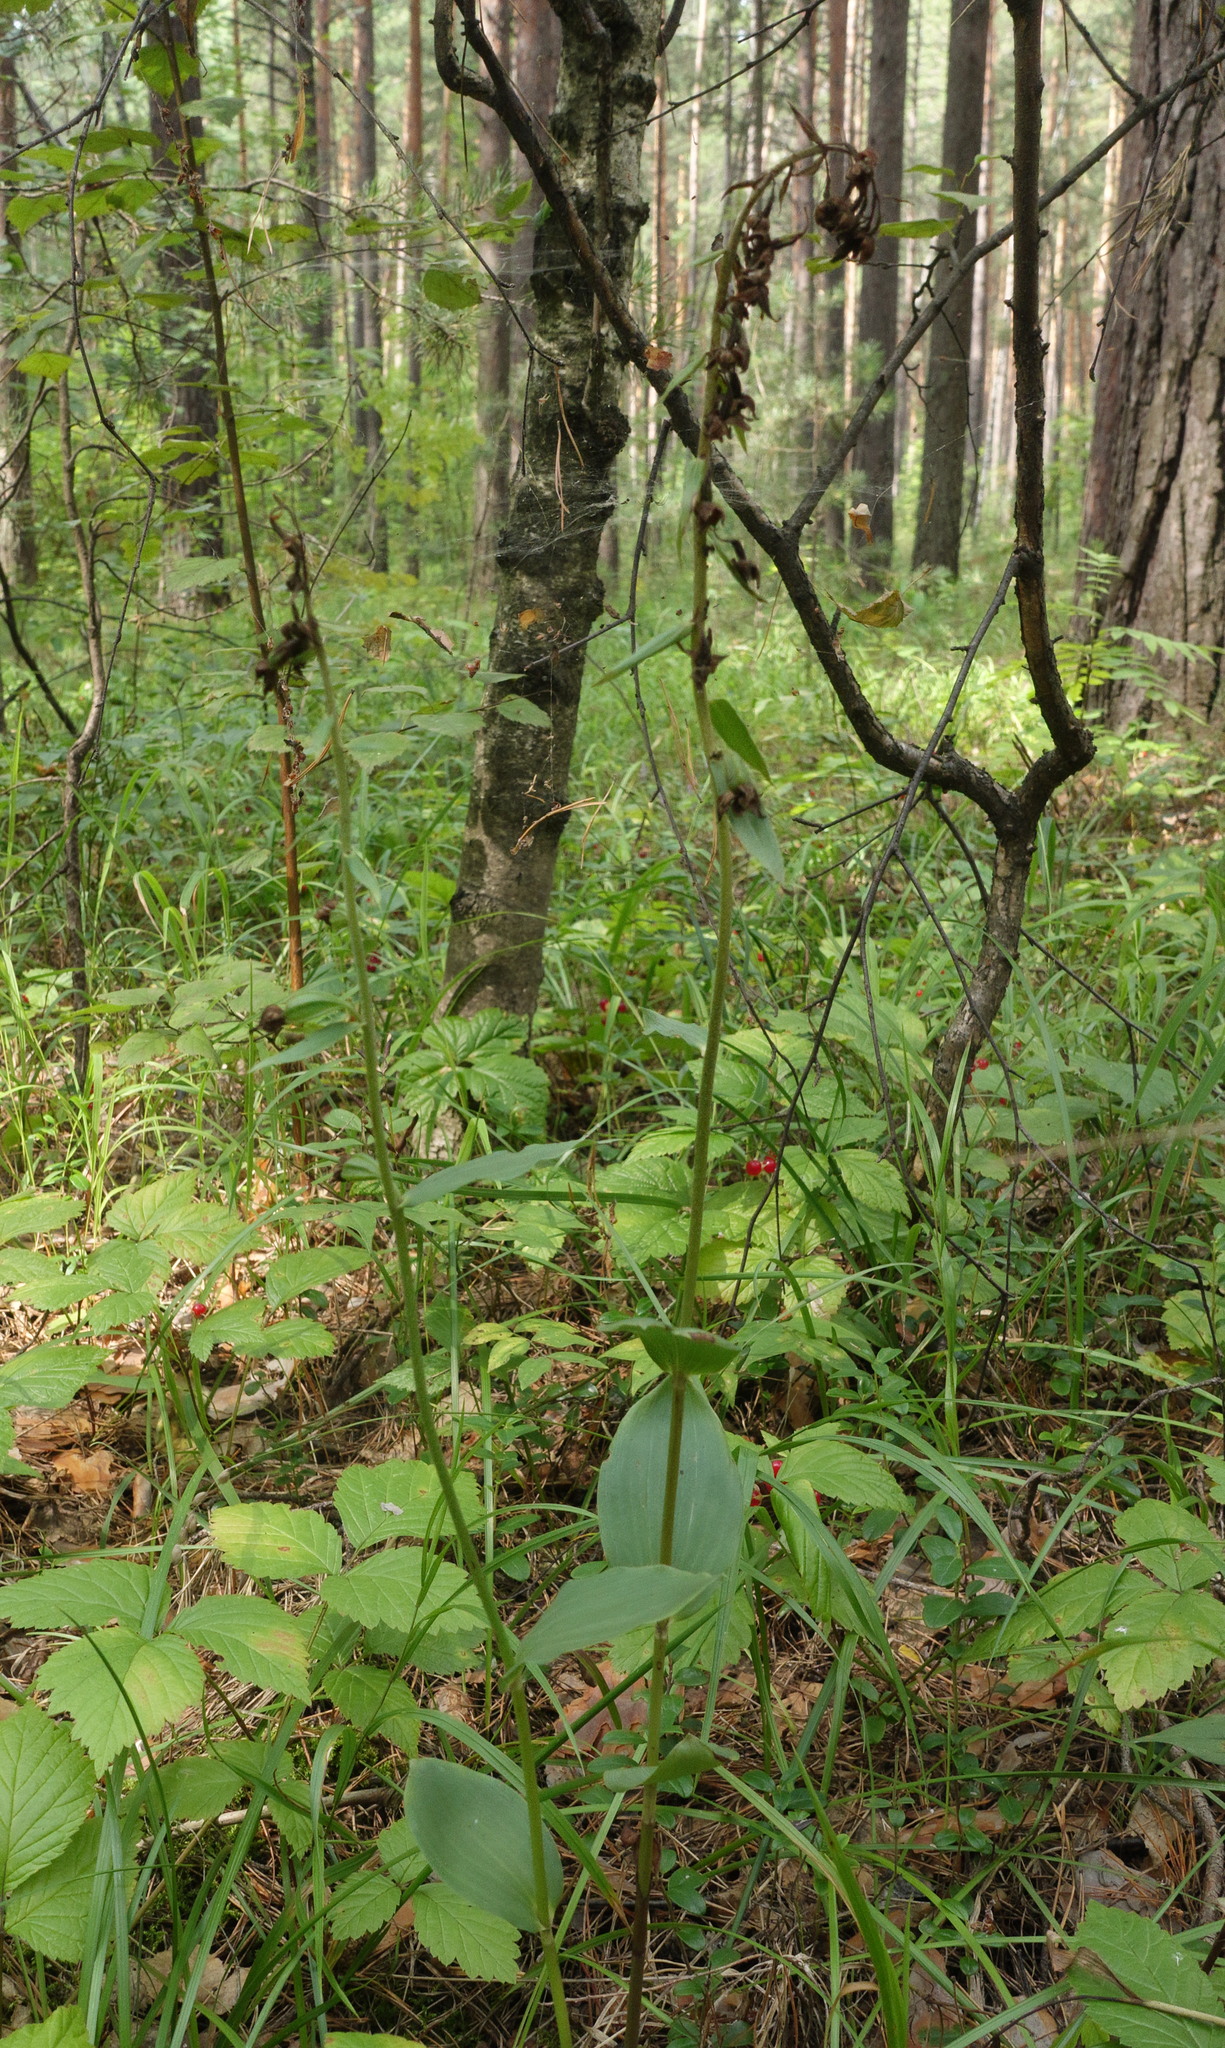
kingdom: Plantae
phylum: Tracheophyta
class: Liliopsida
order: Asparagales
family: Orchidaceae
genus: Epipactis
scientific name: Epipactis helleborine
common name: Broad-leaved helleborine
